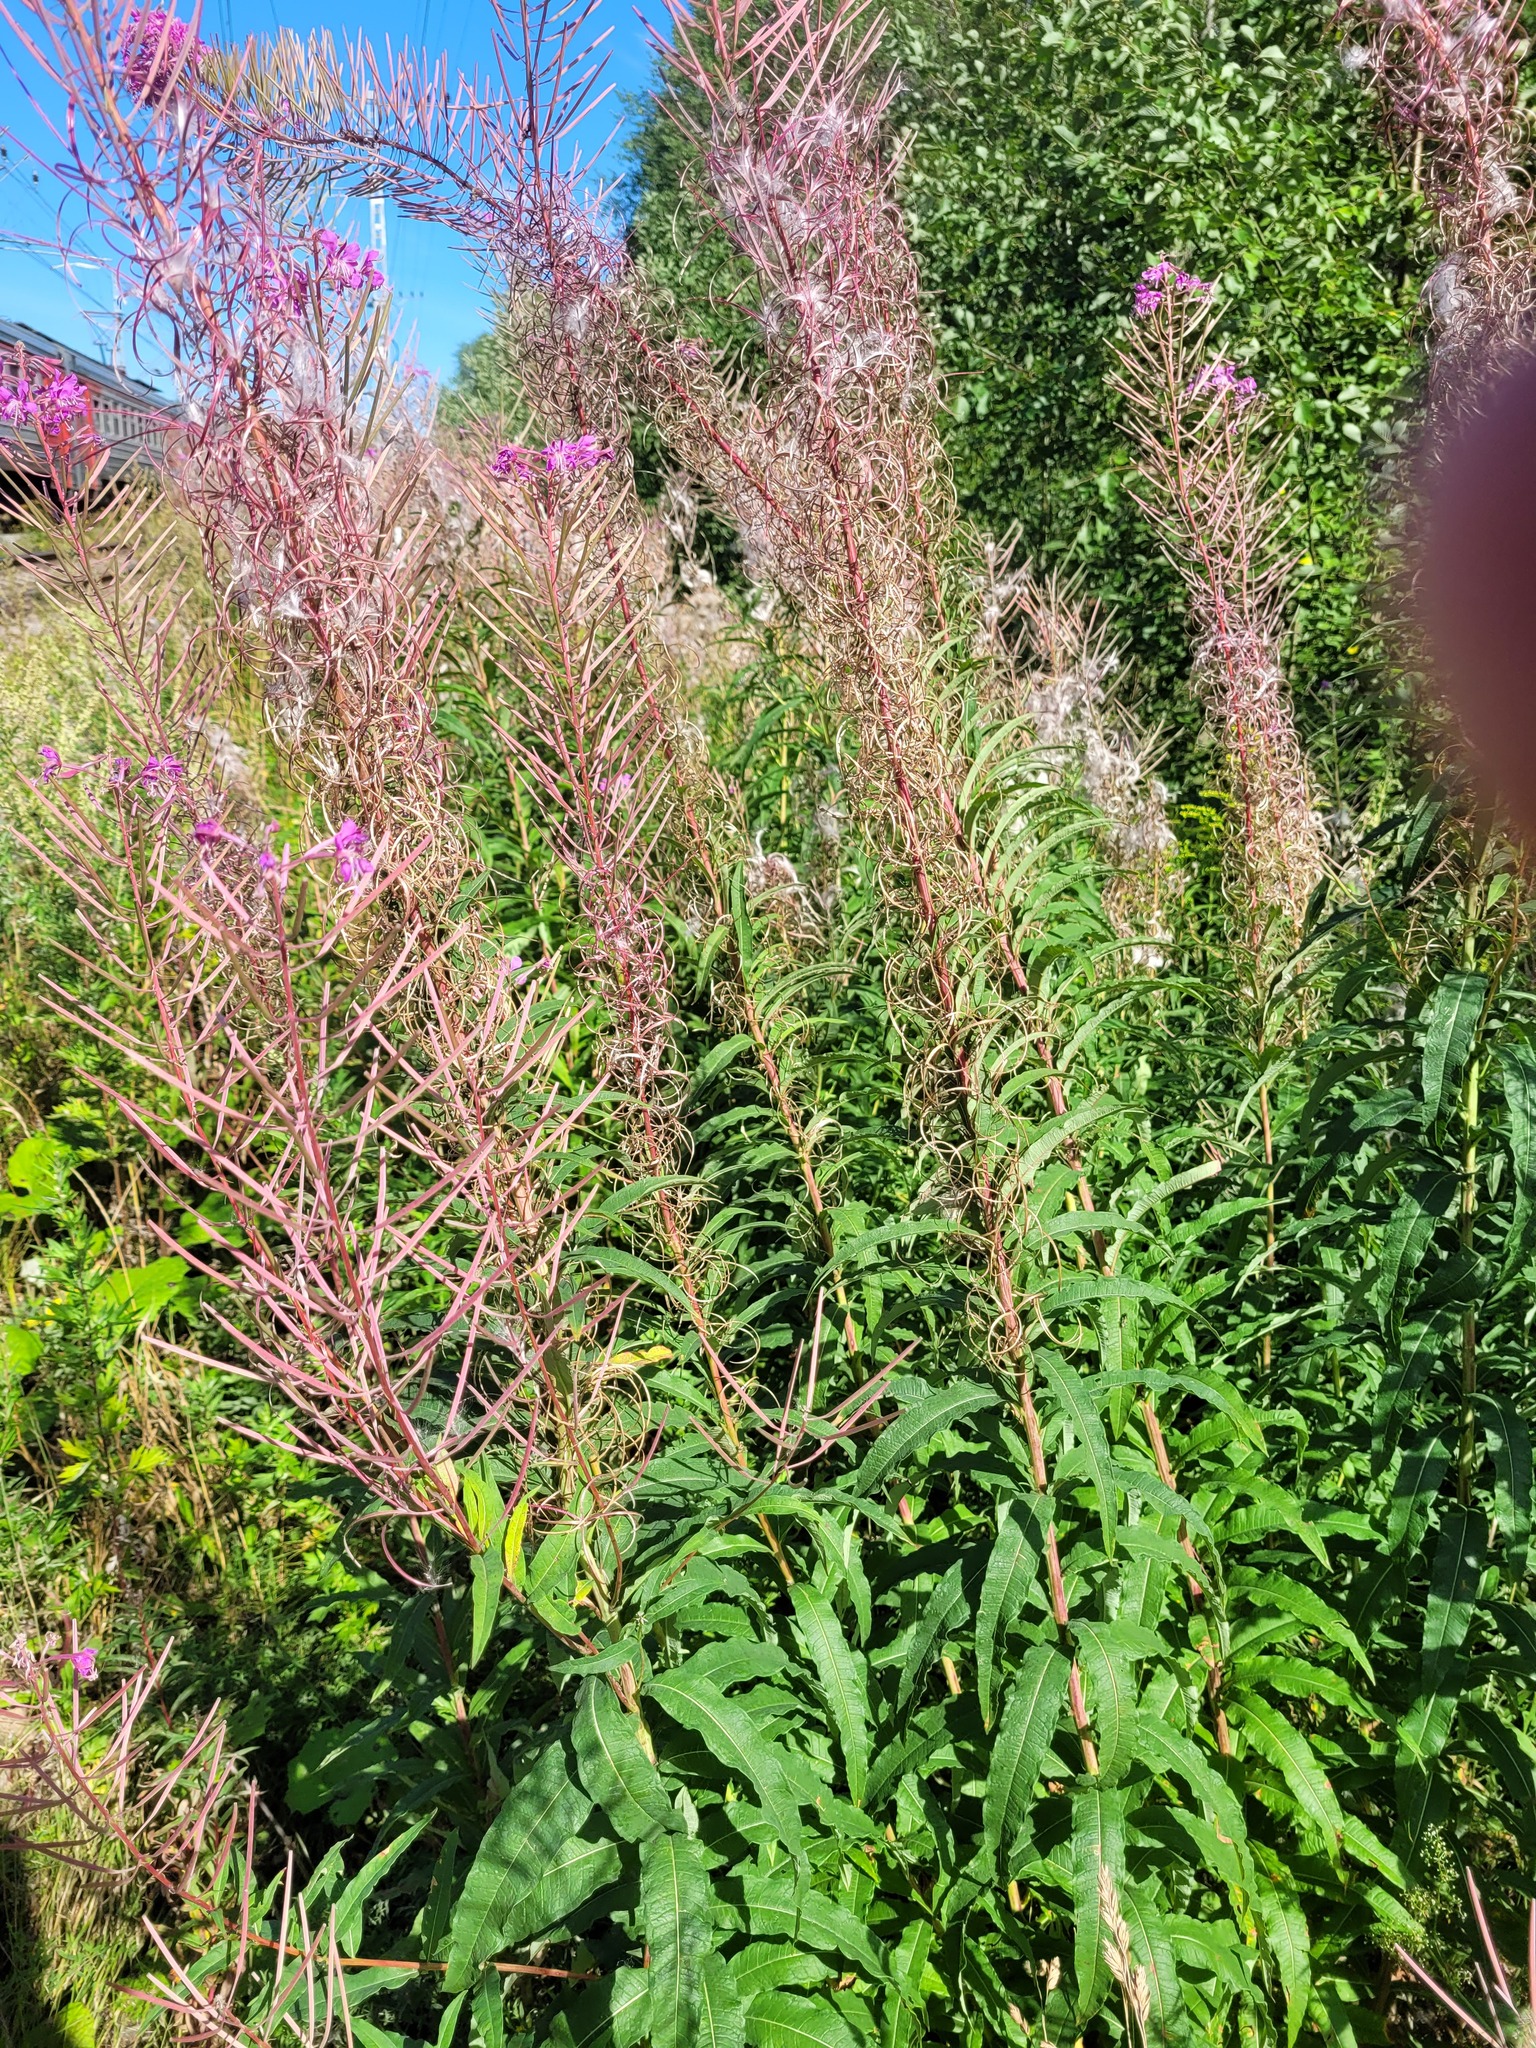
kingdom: Plantae
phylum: Tracheophyta
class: Magnoliopsida
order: Myrtales
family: Onagraceae
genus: Chamaenerion
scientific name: Chamaenerion angustifolium
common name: Fireweed
